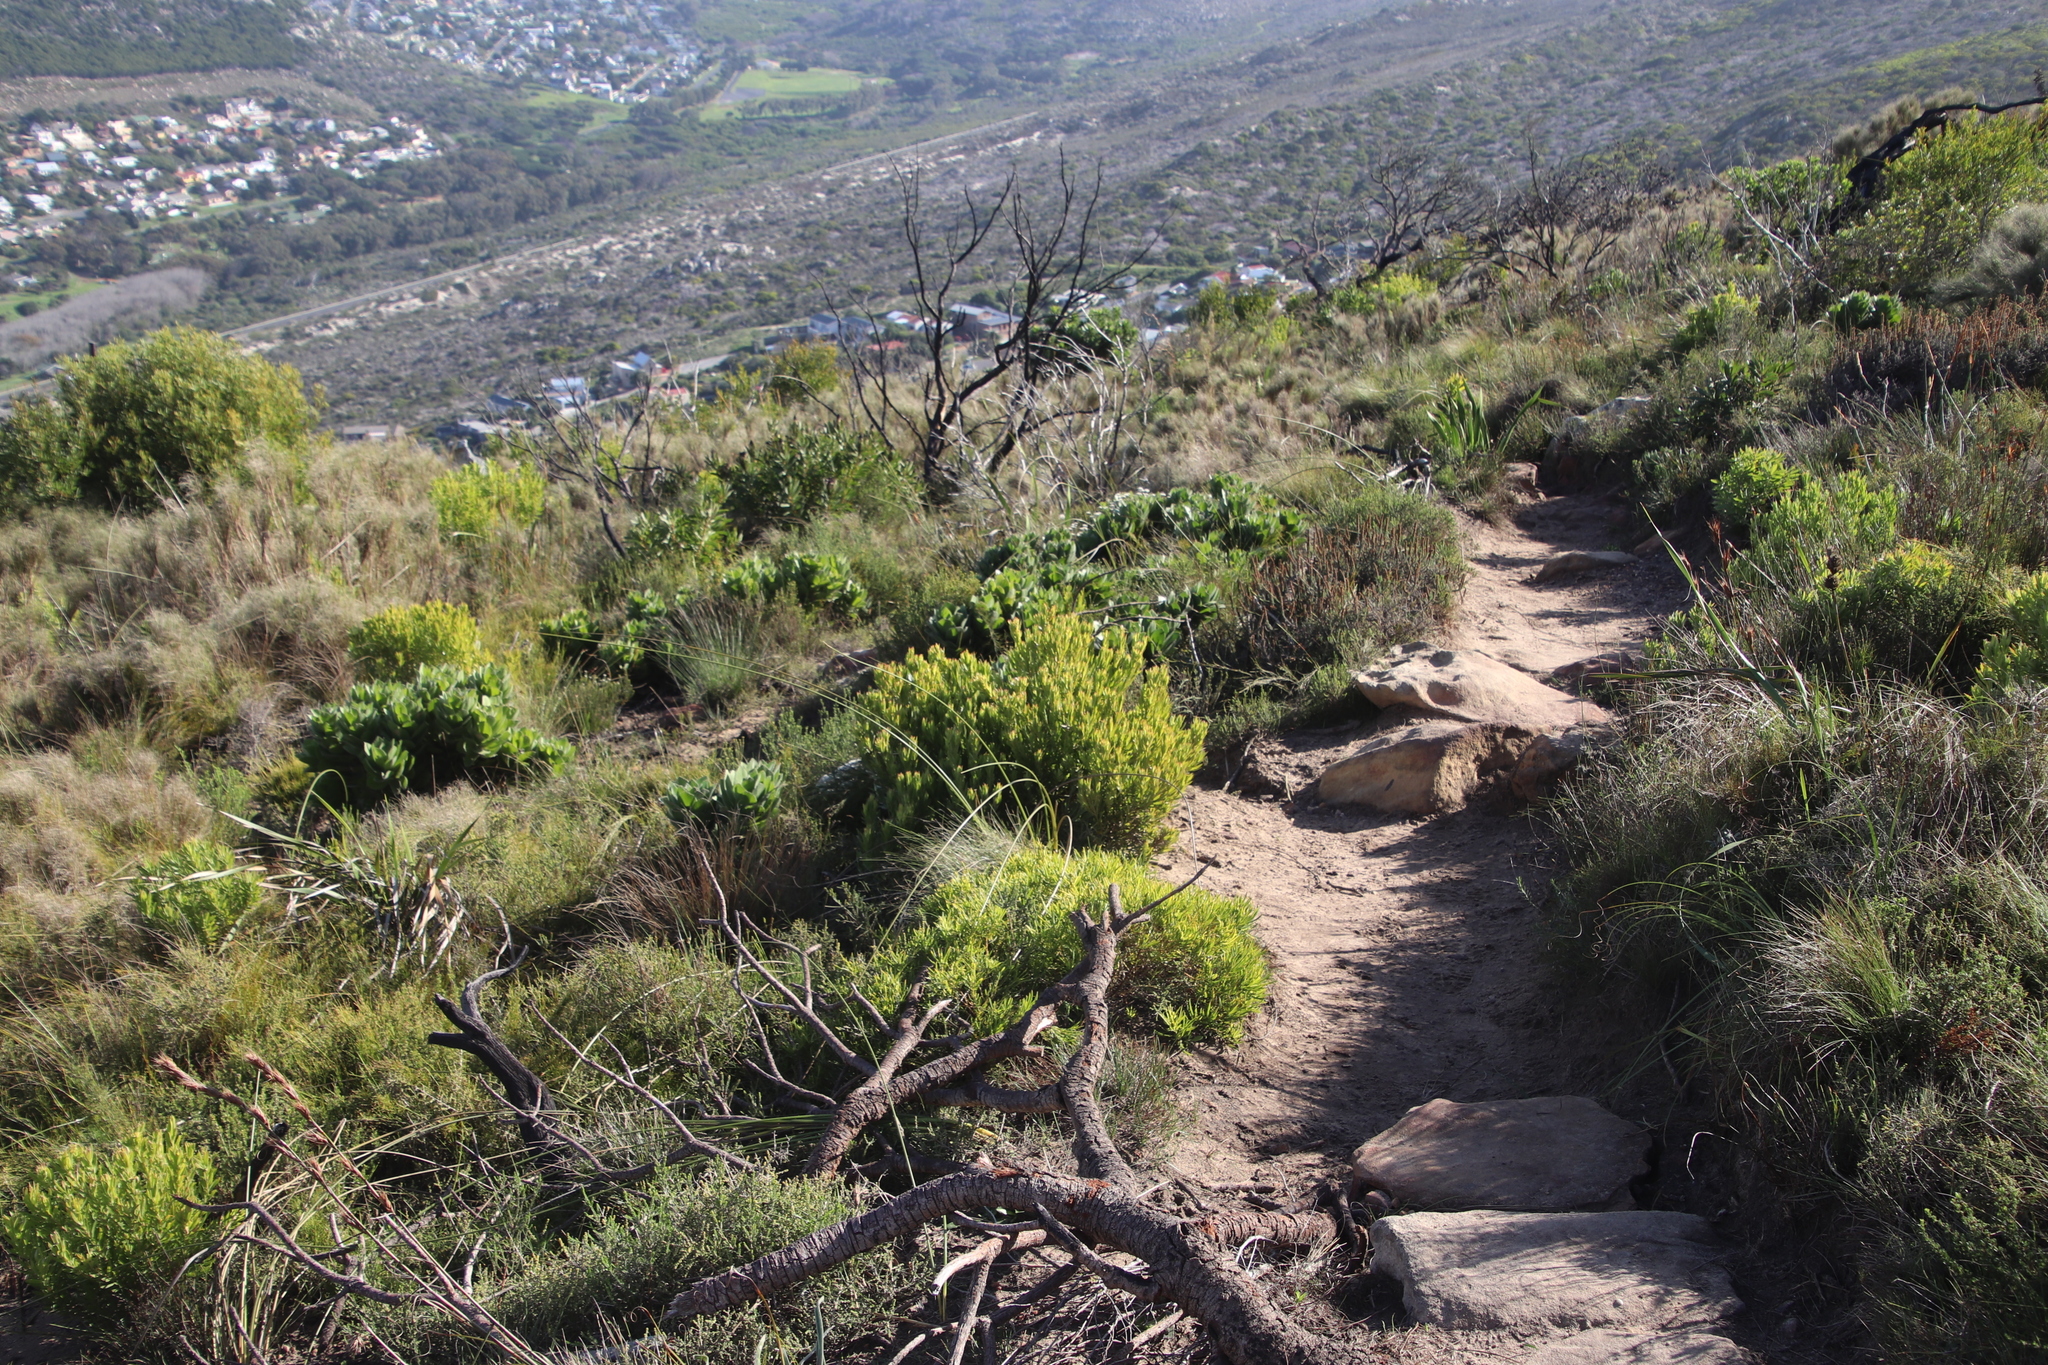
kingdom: Plantae
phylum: Tracheophyta
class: Magnoliopsida
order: Proteales
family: Proteaceae
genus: Leucadendron
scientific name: Leucadendron salignum
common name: Common sunshine conebush
